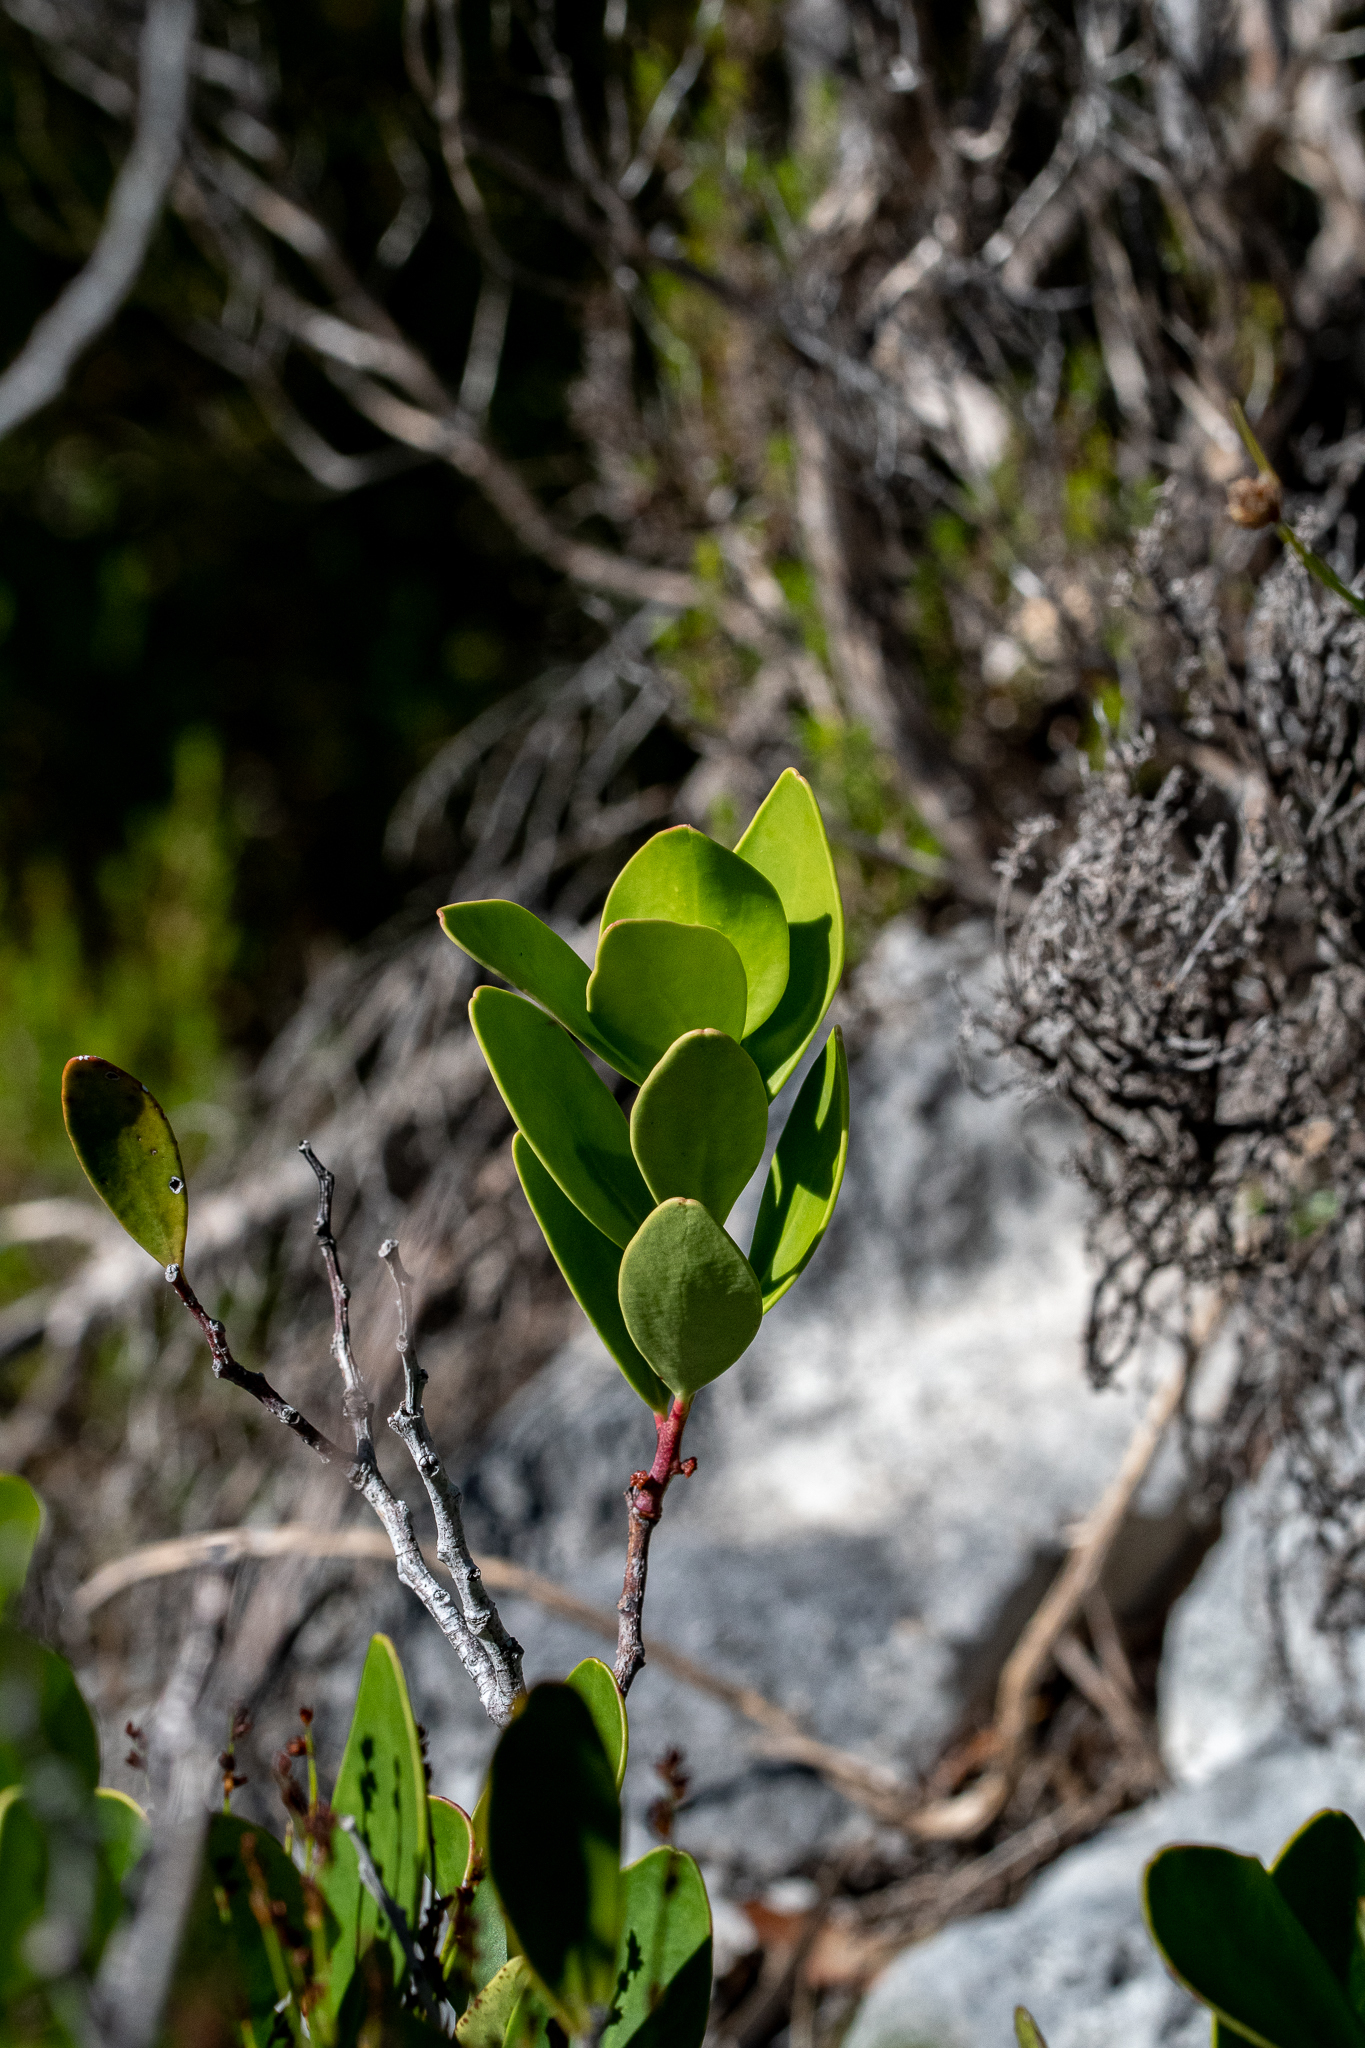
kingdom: Plantae
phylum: Tracheophyta
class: Magnoliopsida
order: Celastrales
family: Celastraceae
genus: Pterocelastrus
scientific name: Pterocelastrus tricuspidatus
